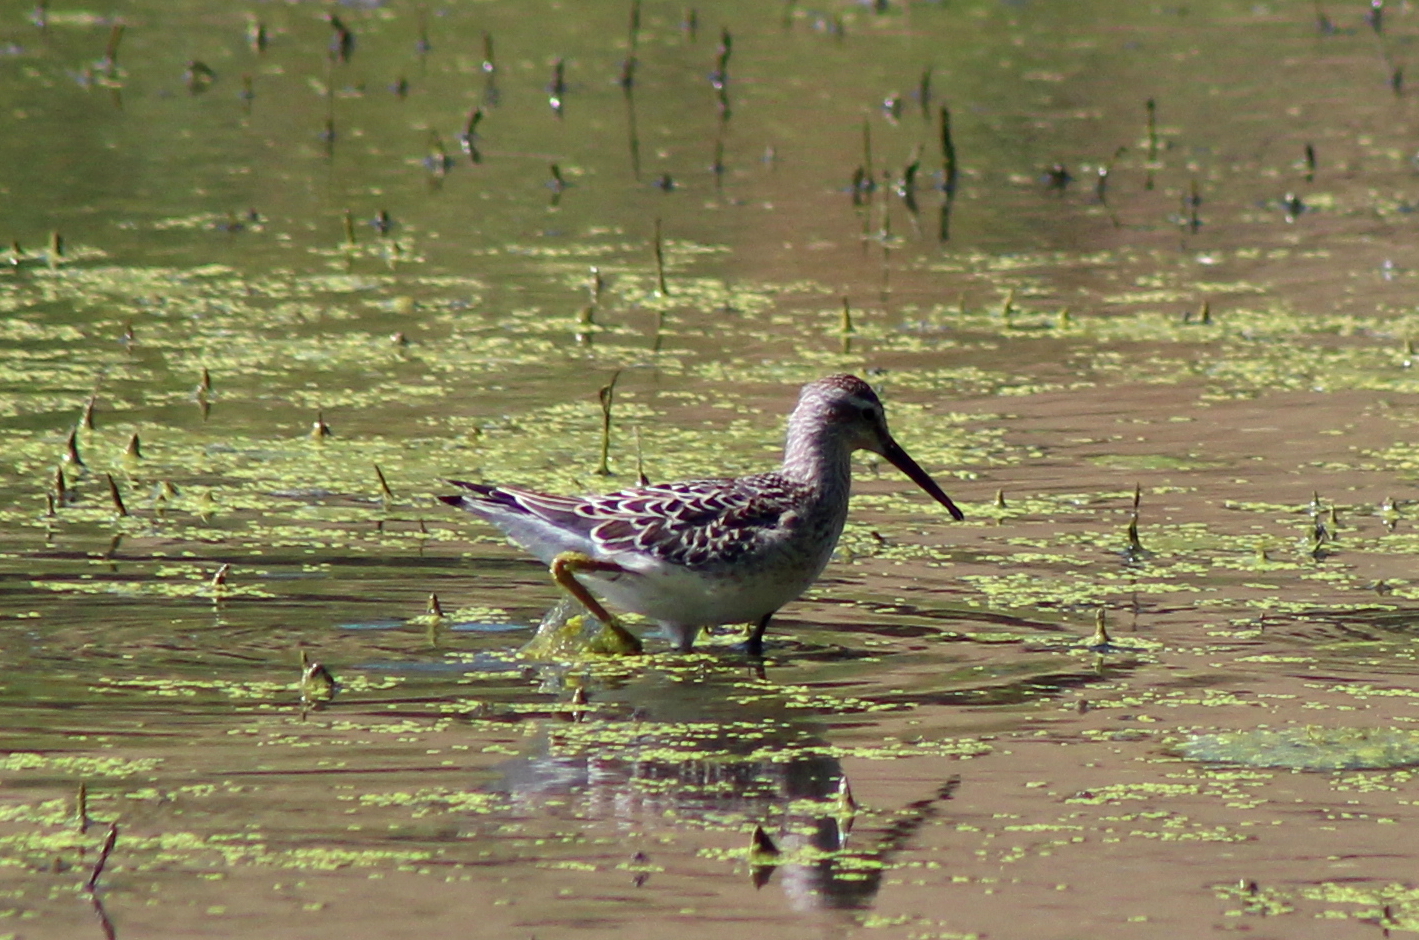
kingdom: Animalia
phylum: Chordata
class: Aves
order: Charadriiformes
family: Scolopacidae
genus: Calidris
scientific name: Calidris himantopus
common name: Stilt sandpiper
